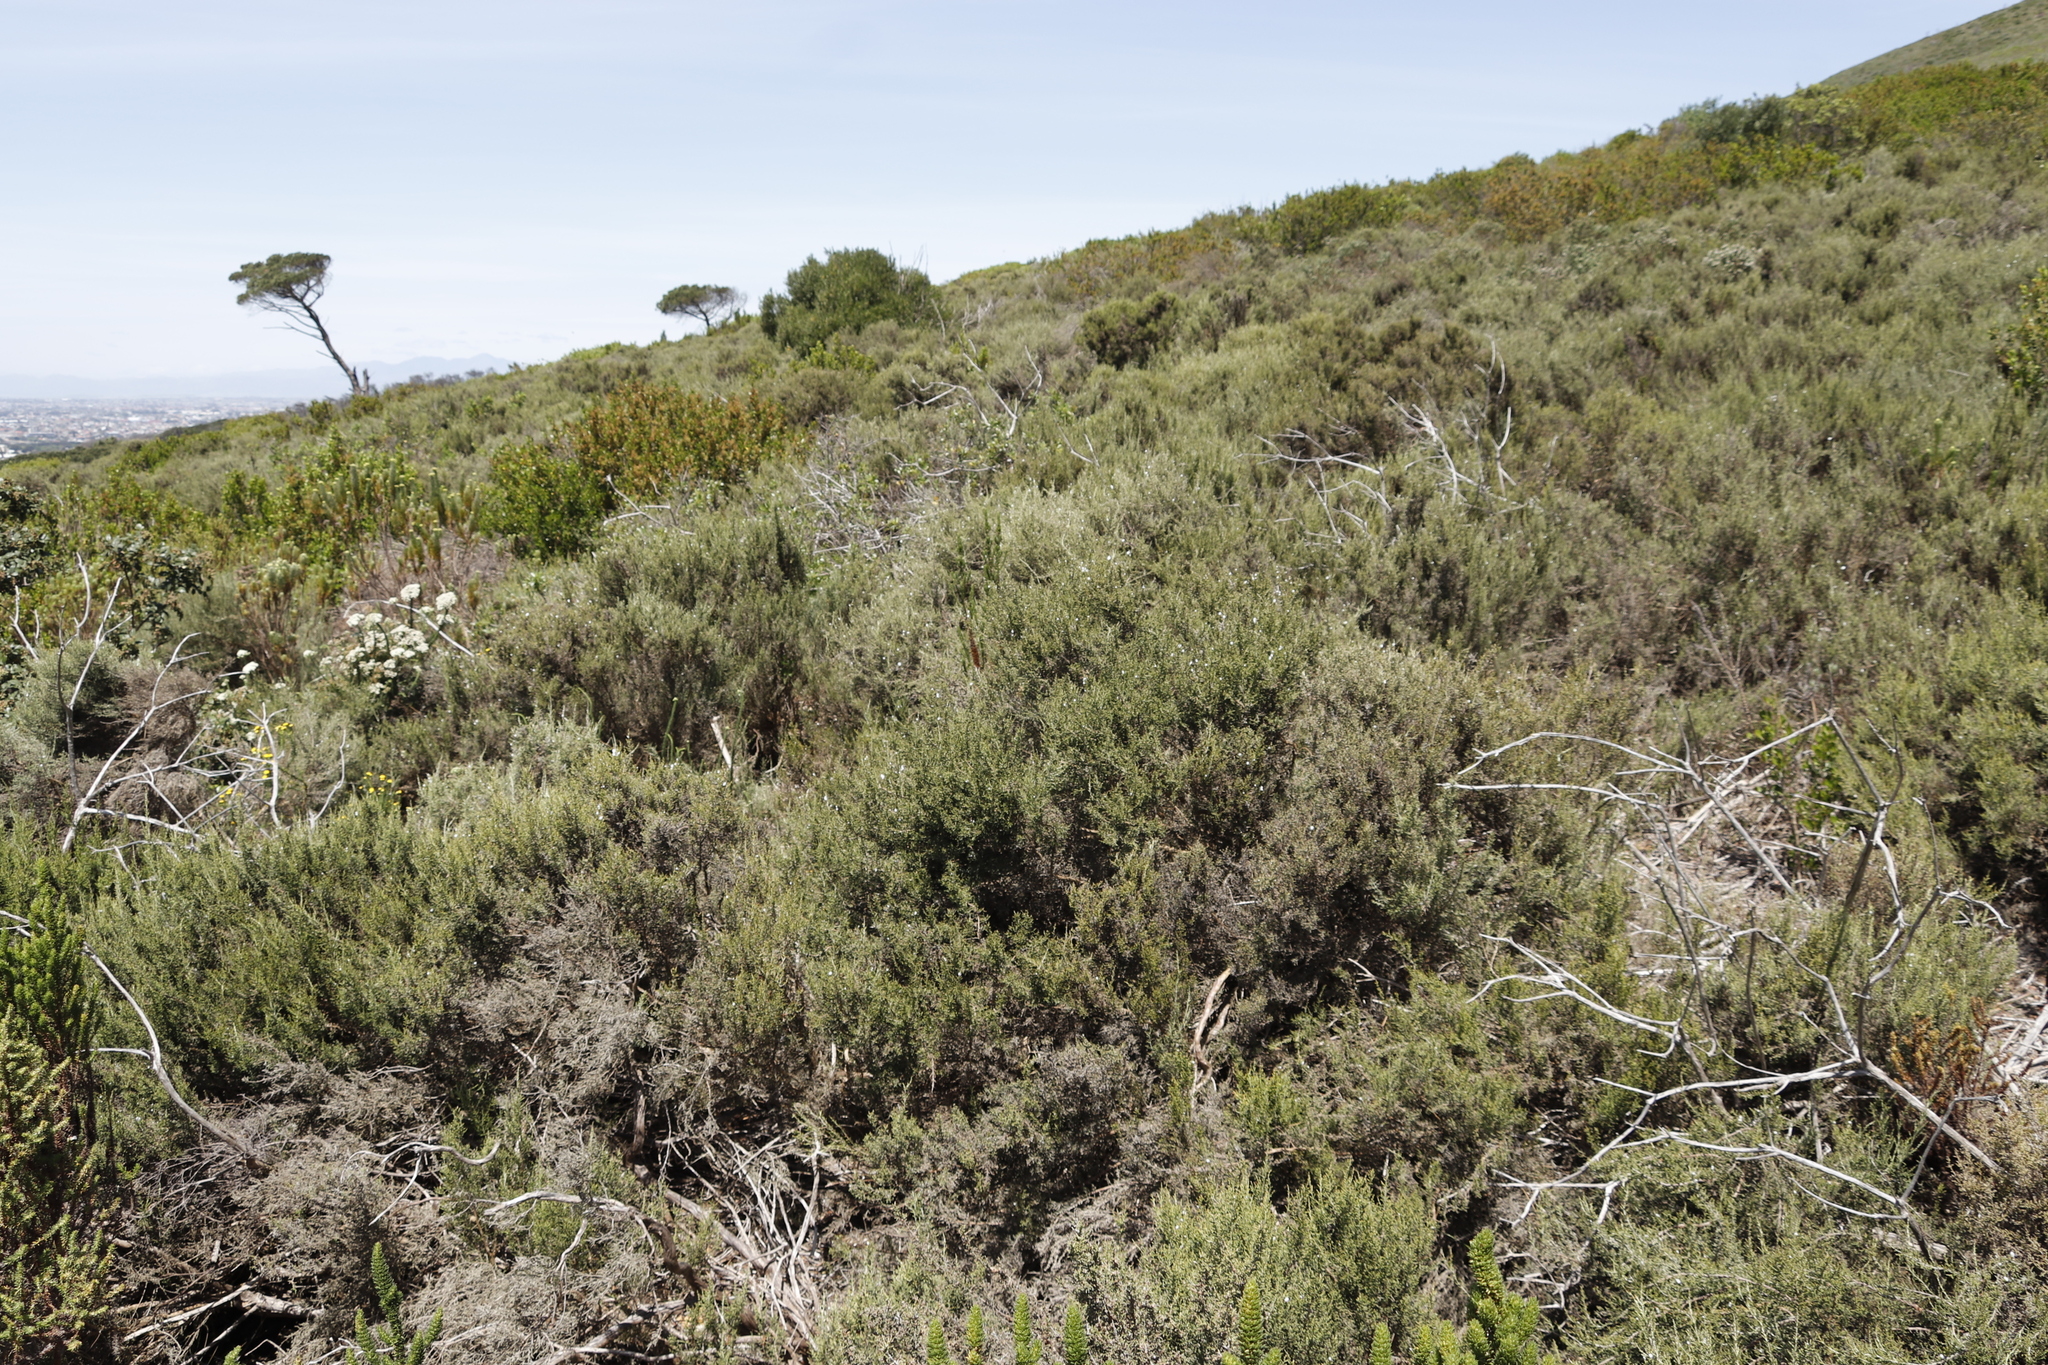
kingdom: Plantae
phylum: Tracheophyta
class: Magnoliopsida
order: Asterales
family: Asteraceae
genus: Dicerothamnus
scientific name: Dicerothamnus rhinocerotis
